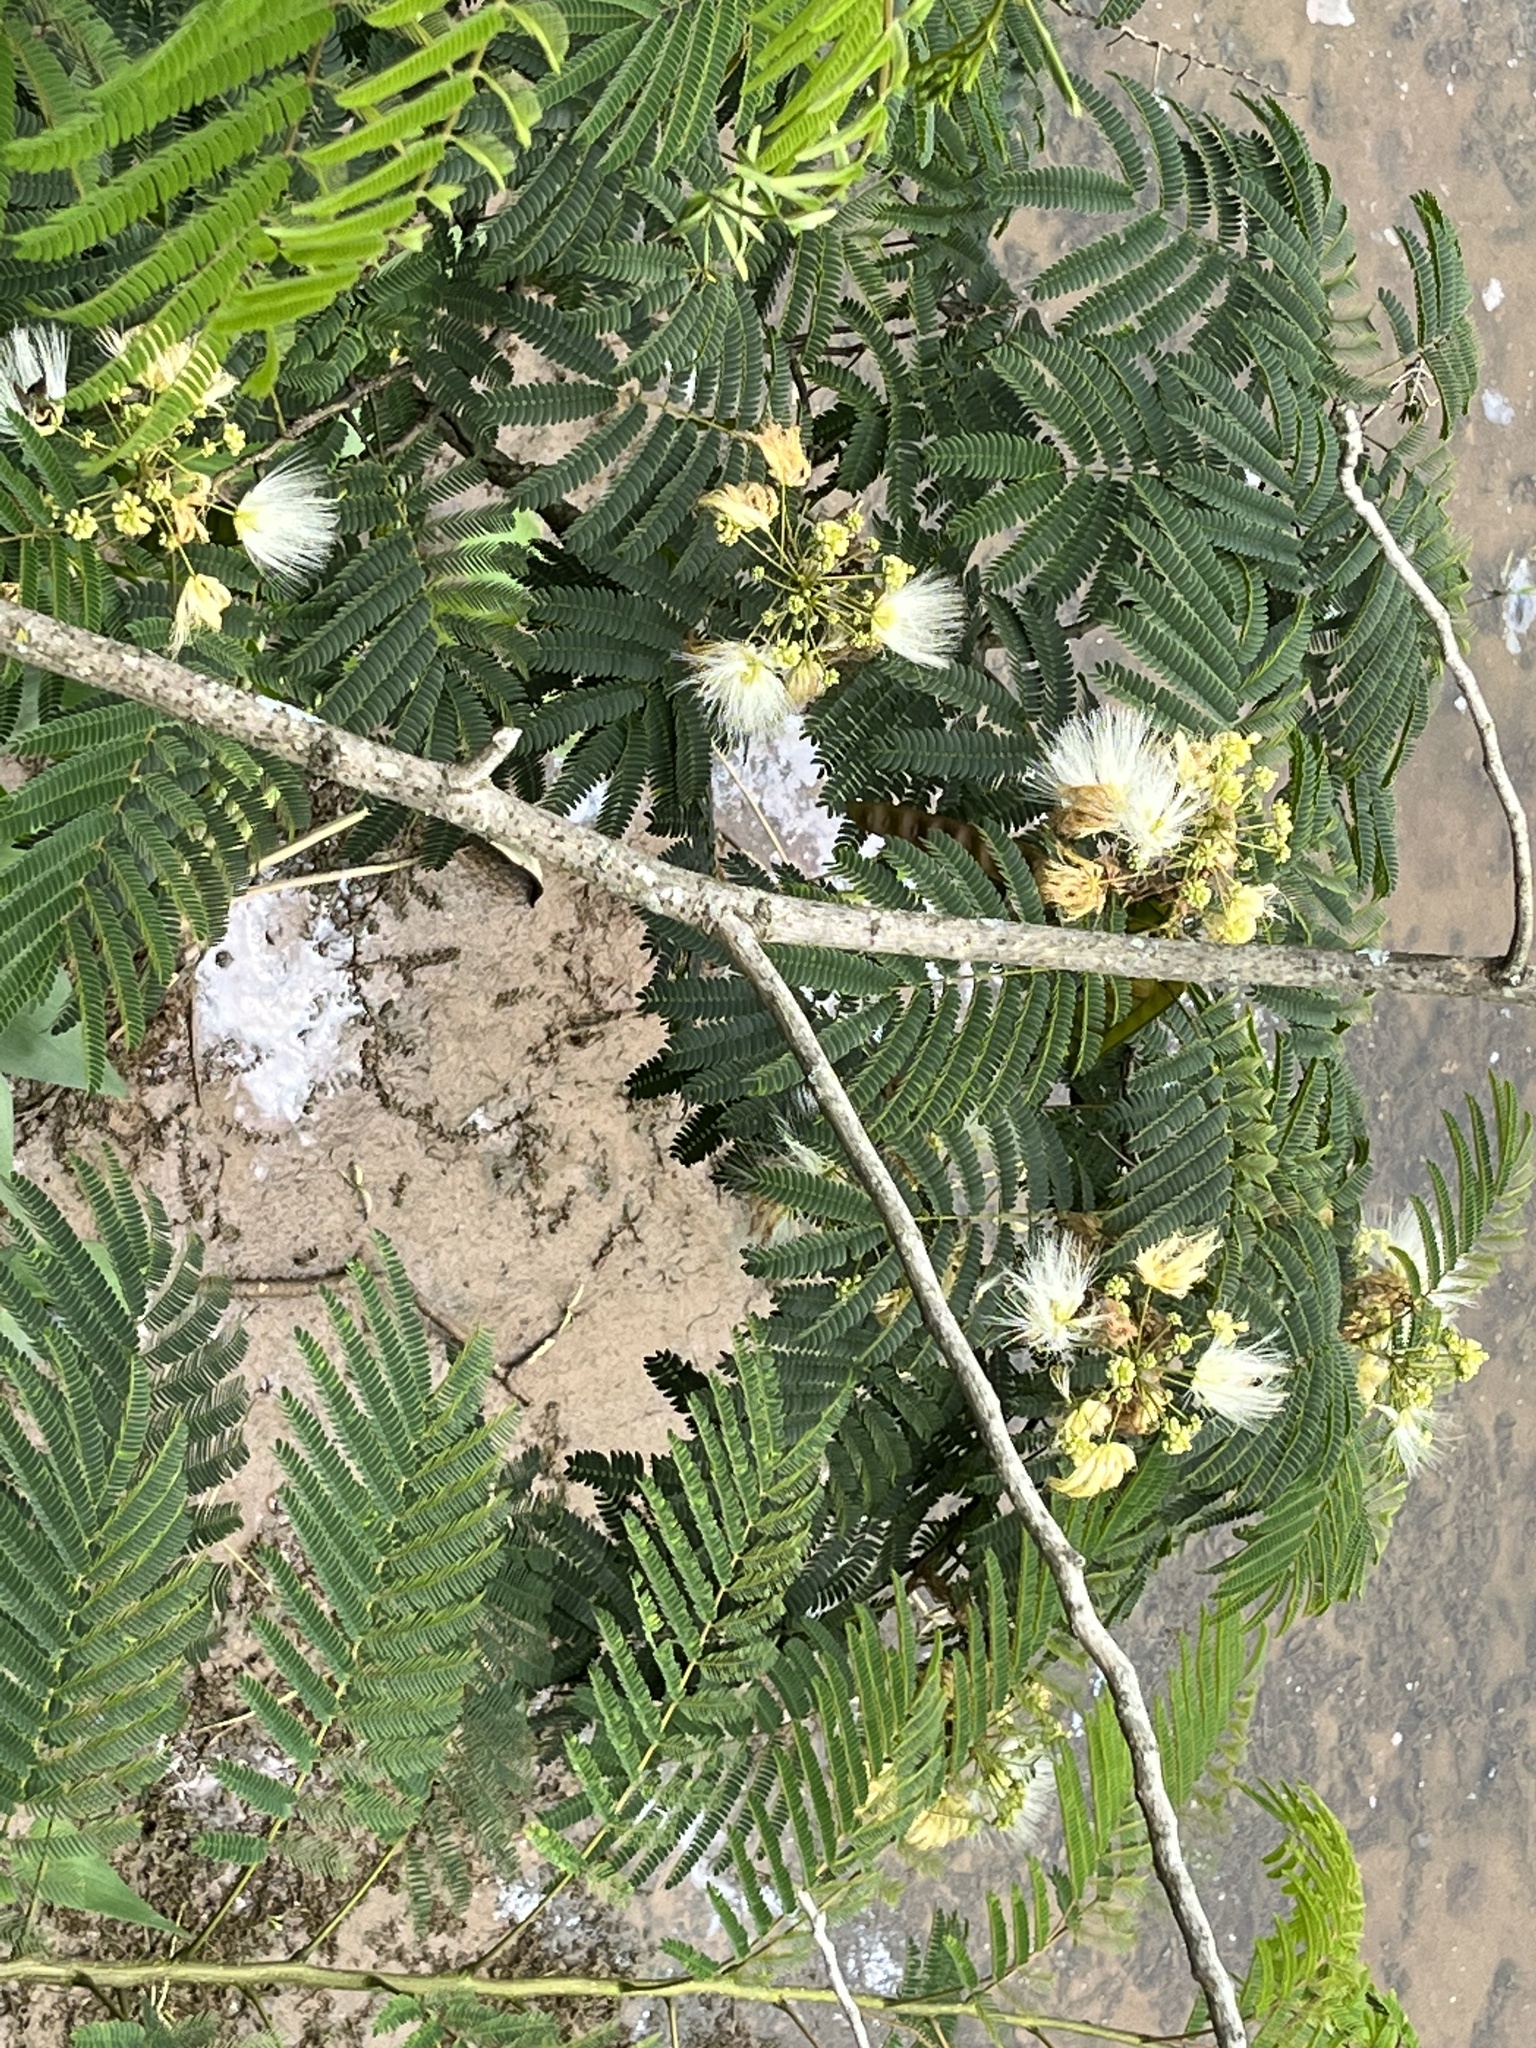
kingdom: Plantae
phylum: Tracheophyta
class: Magnoliopsida
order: Fabales
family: Fabaceae
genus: Albizia
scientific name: Albizia julibrissin
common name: Silktree
